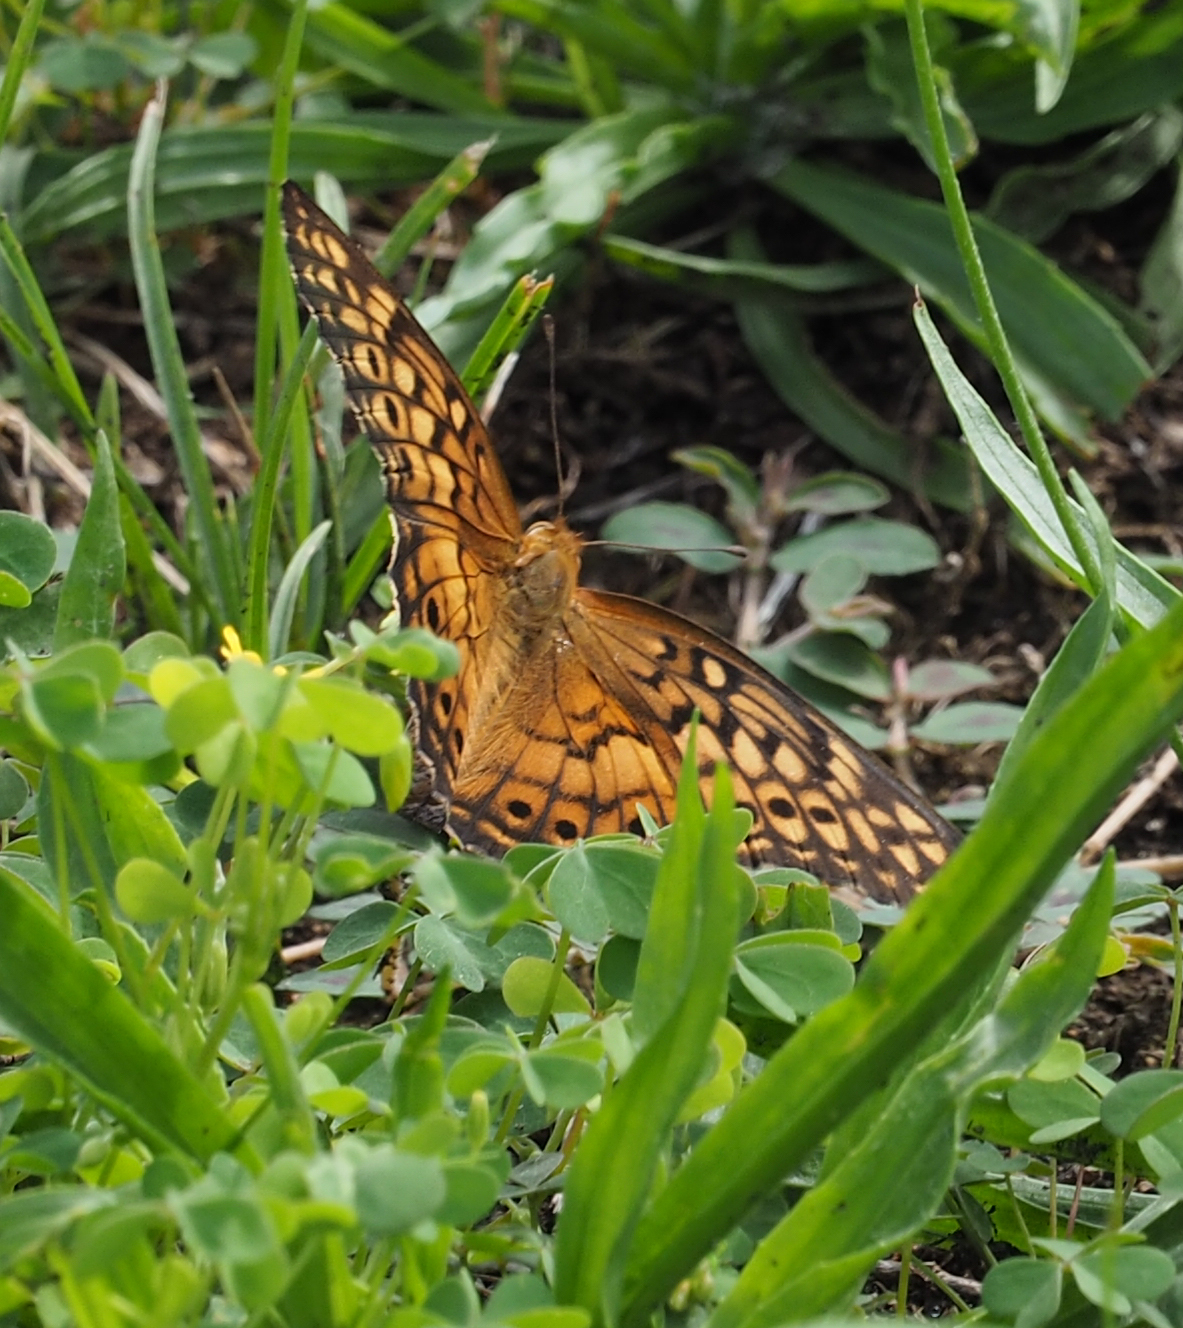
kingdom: Animalia
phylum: Arthropoda
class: Insecta
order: Lepidoptera
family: Nymphalidae
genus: Euptoieta
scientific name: Euptoieta claudia
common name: Variegated fritillary
